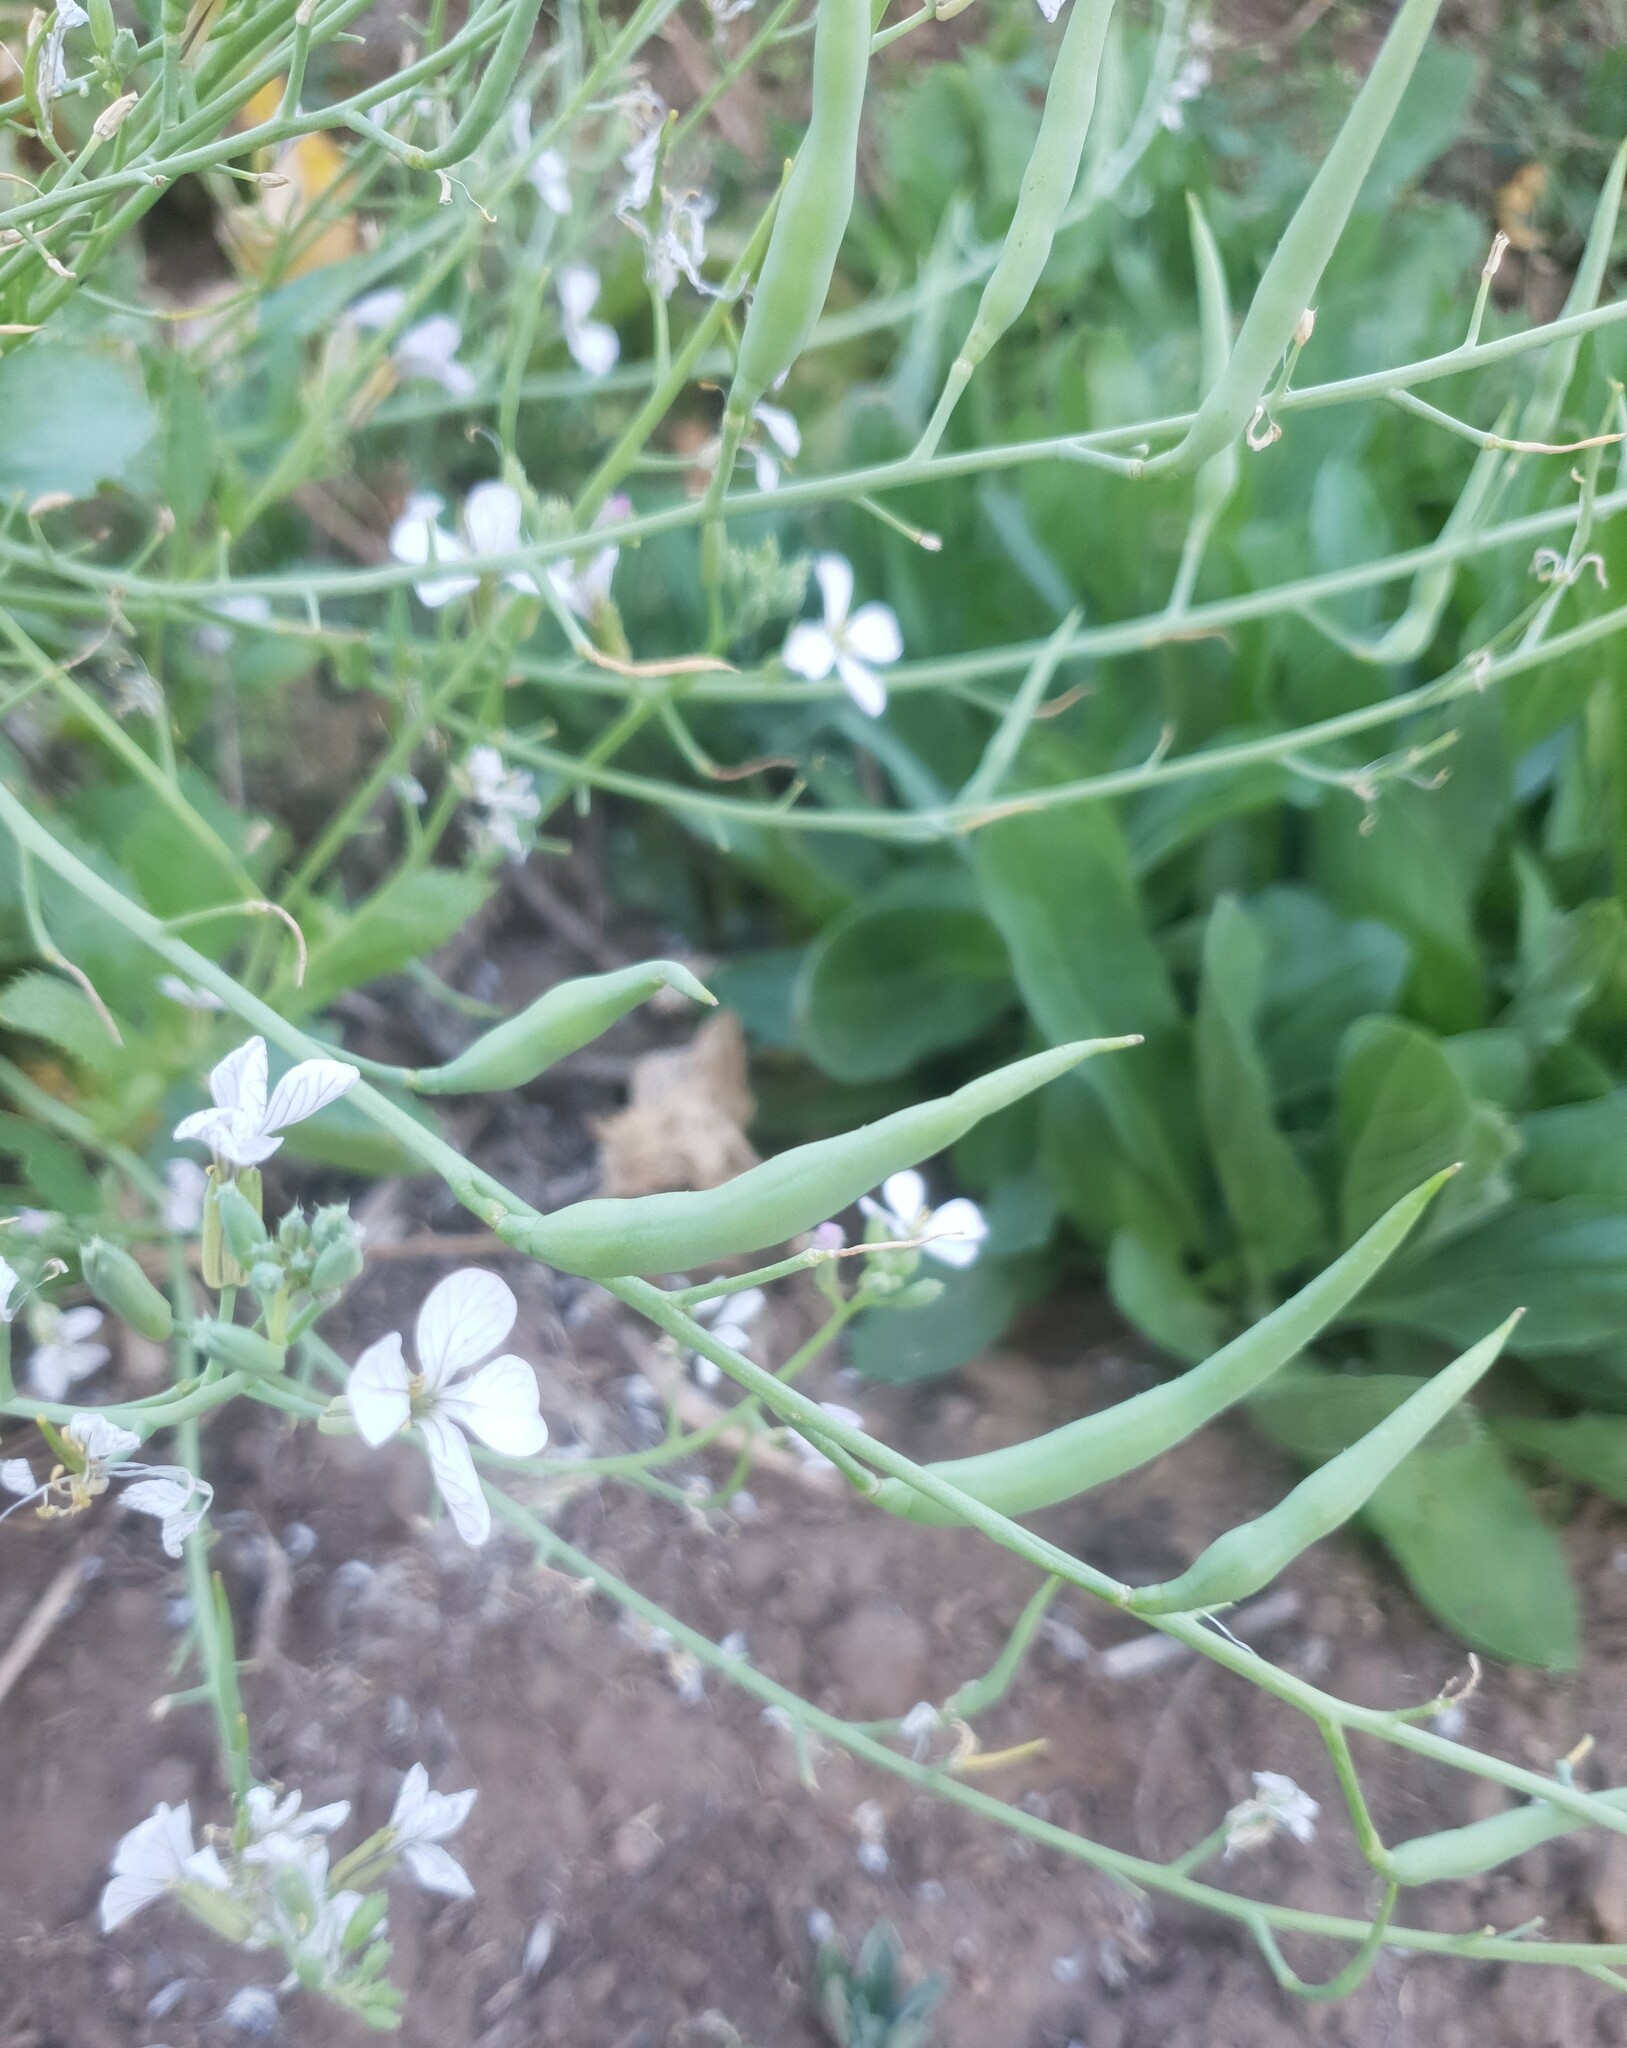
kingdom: Plantae
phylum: Tracheophyta
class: Magnoliopsida
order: Brassicales
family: Brassicaceae
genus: Raphanus
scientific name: Raphanus raphanistrum
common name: Wild radish
